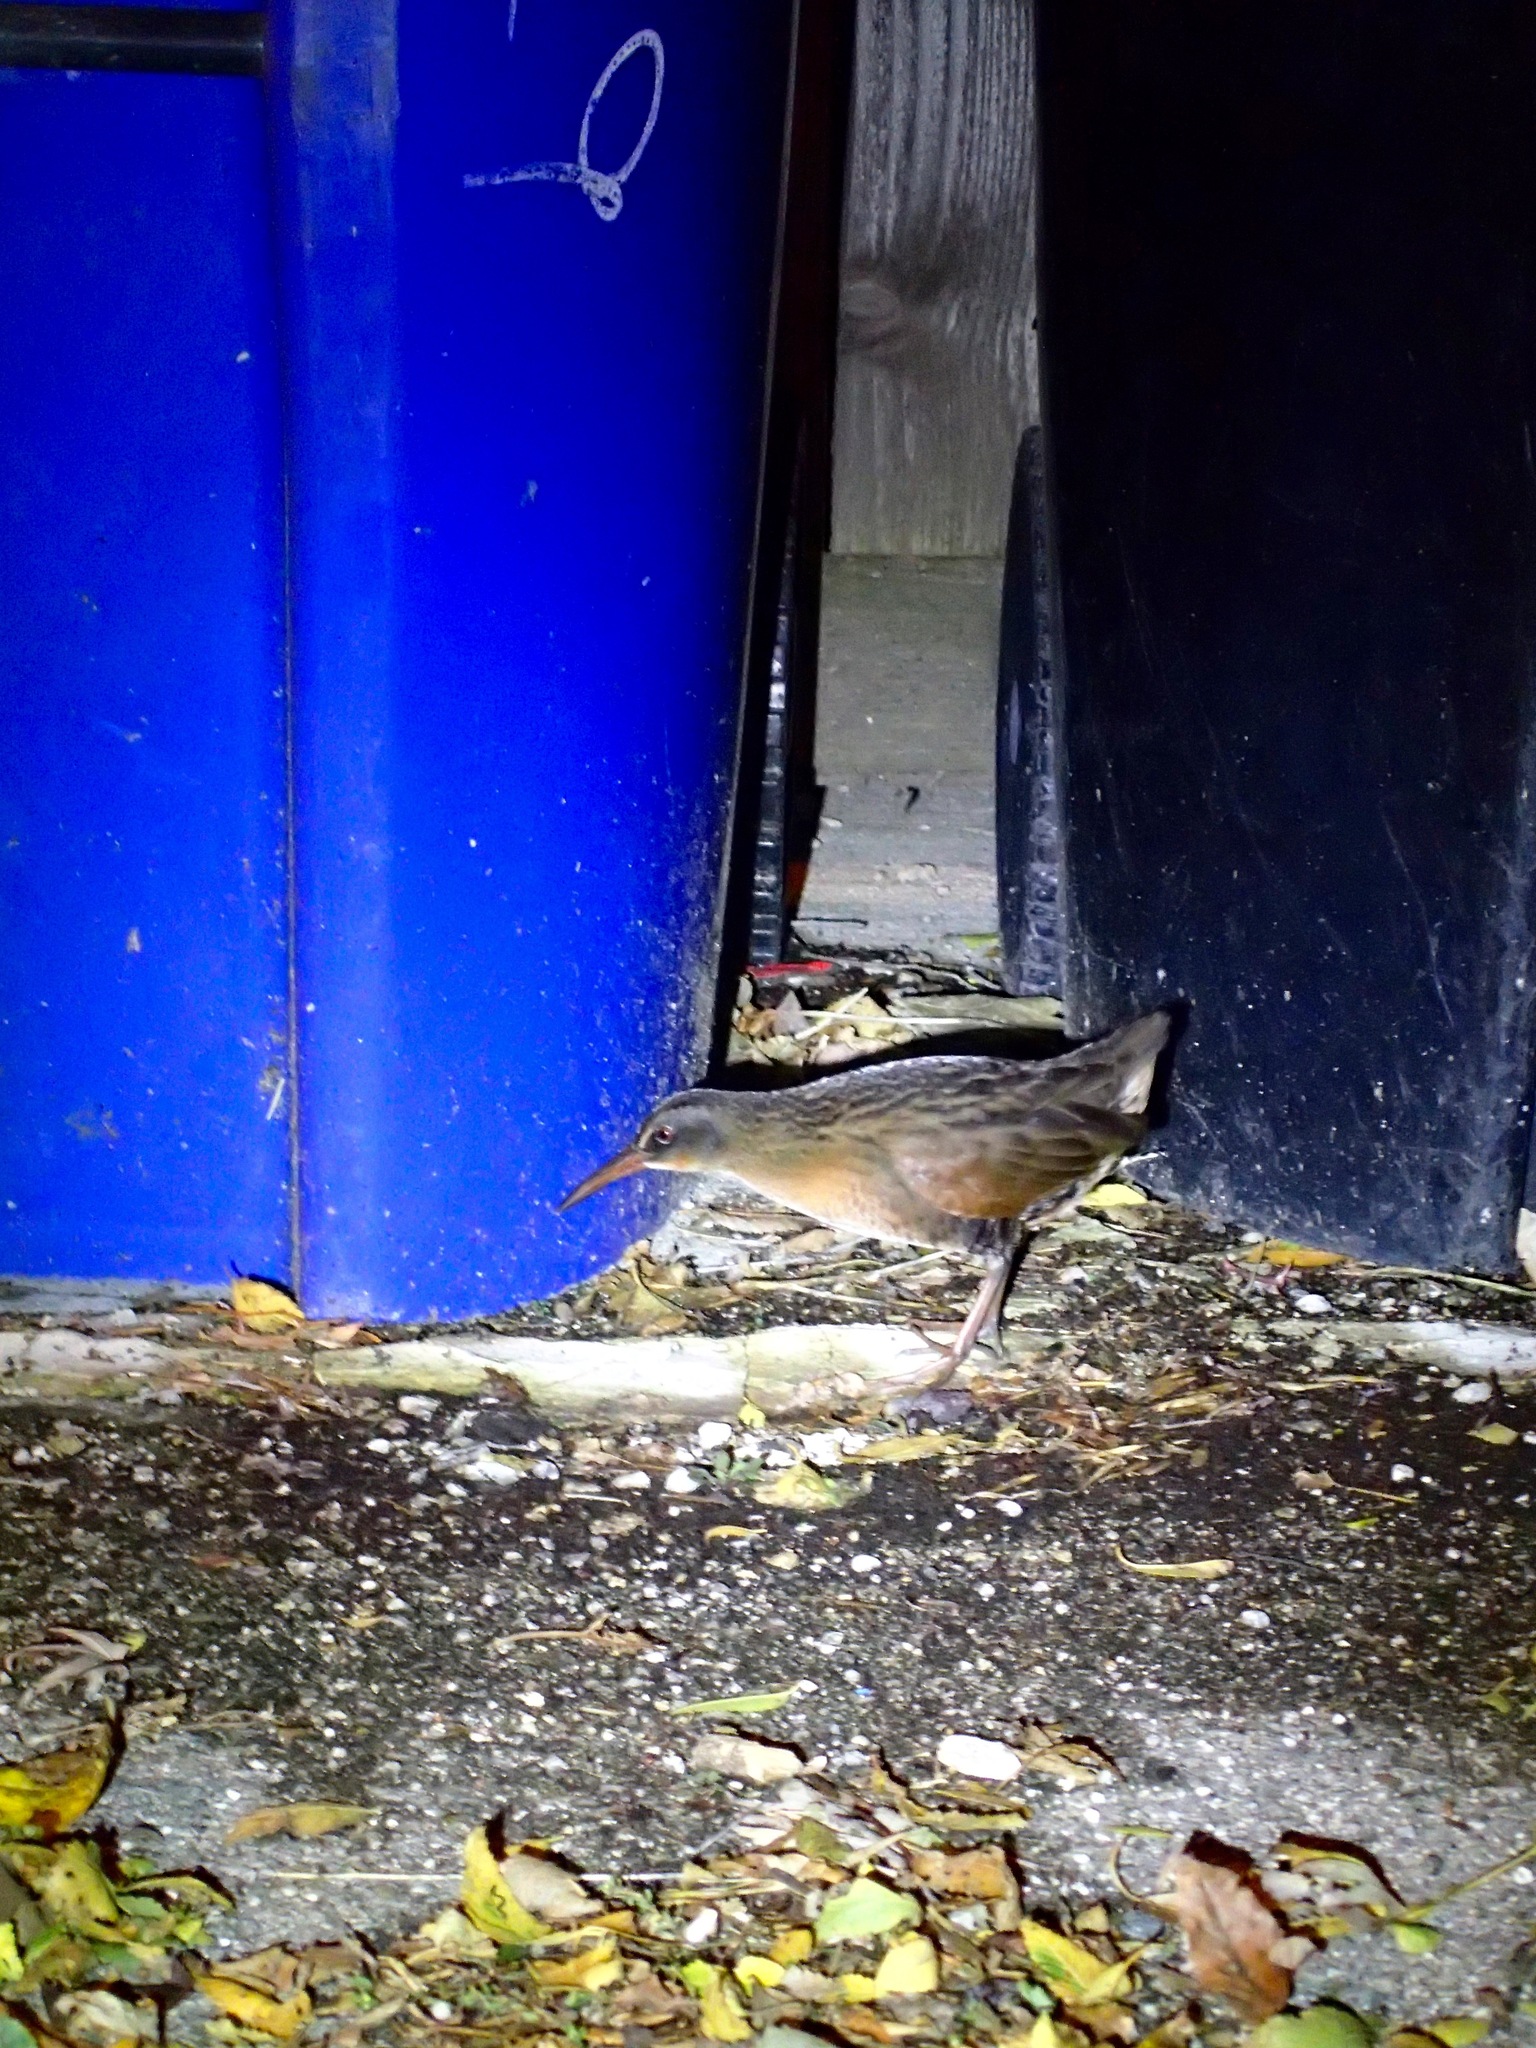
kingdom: Animalia
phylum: Chordata
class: Aves
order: Gruiformes
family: Rallidae
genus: Rallus
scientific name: Rallus limicola
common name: Virginia rail
